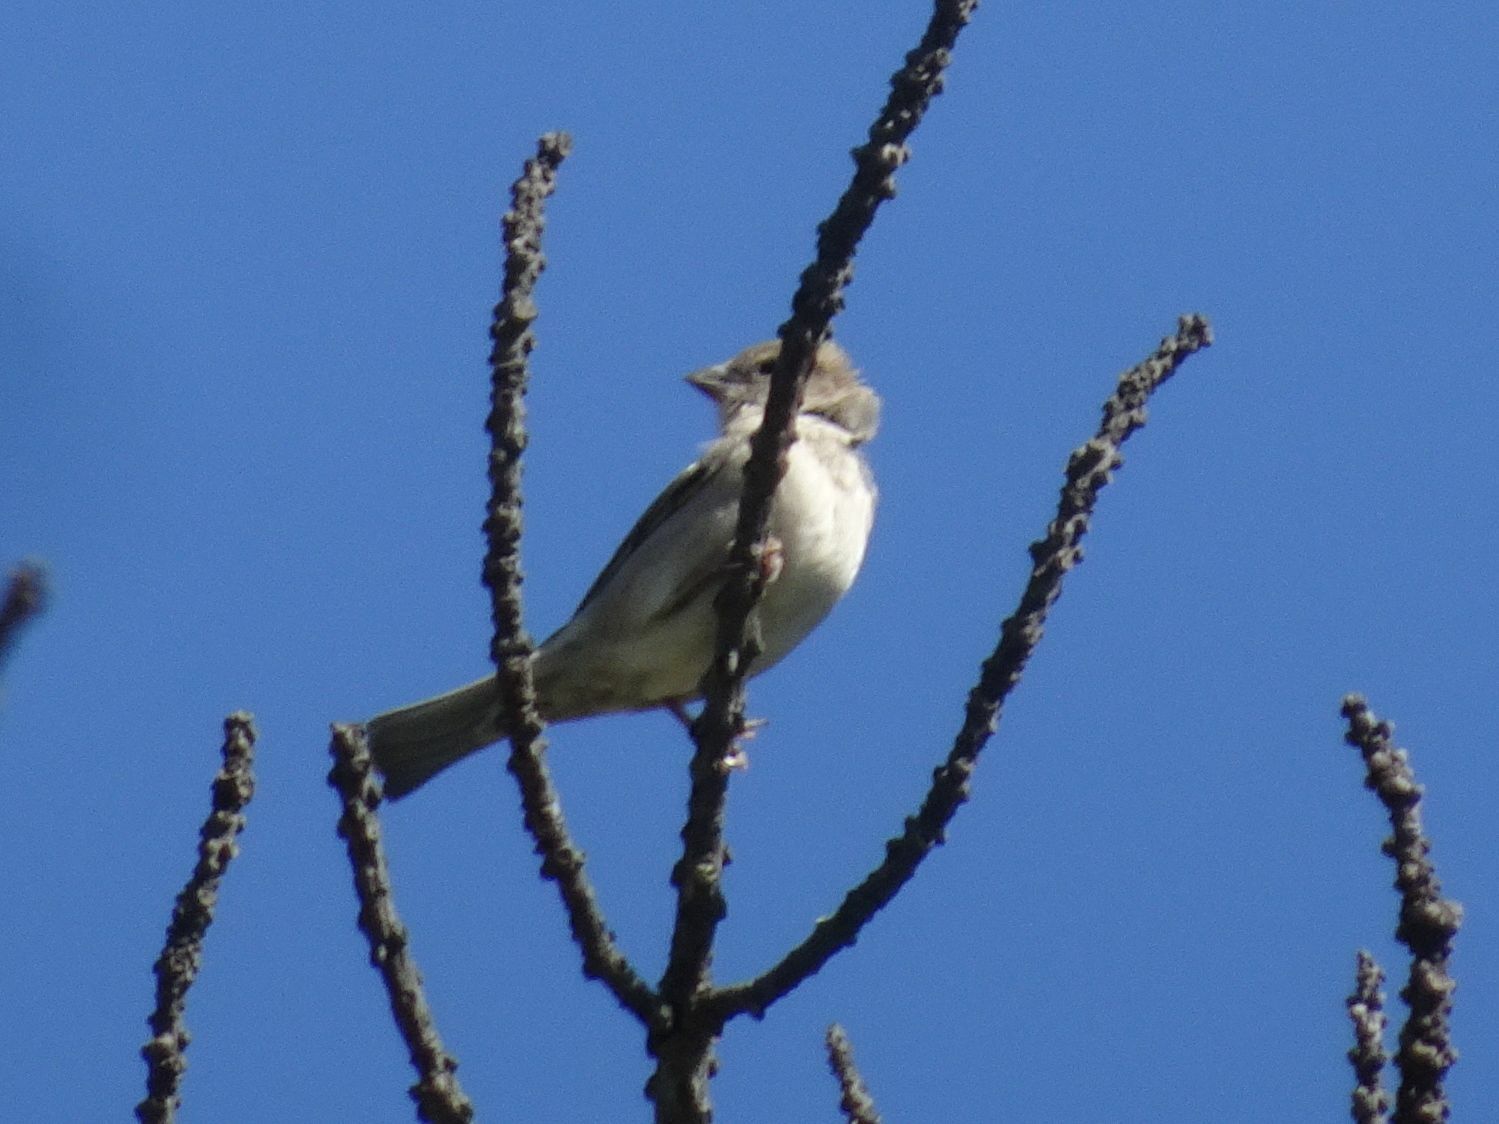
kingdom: Animalia
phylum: Chordata
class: Aves
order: Passeriformes
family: Passeridae
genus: Passer
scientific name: Passer domesticus
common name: House sparrow
